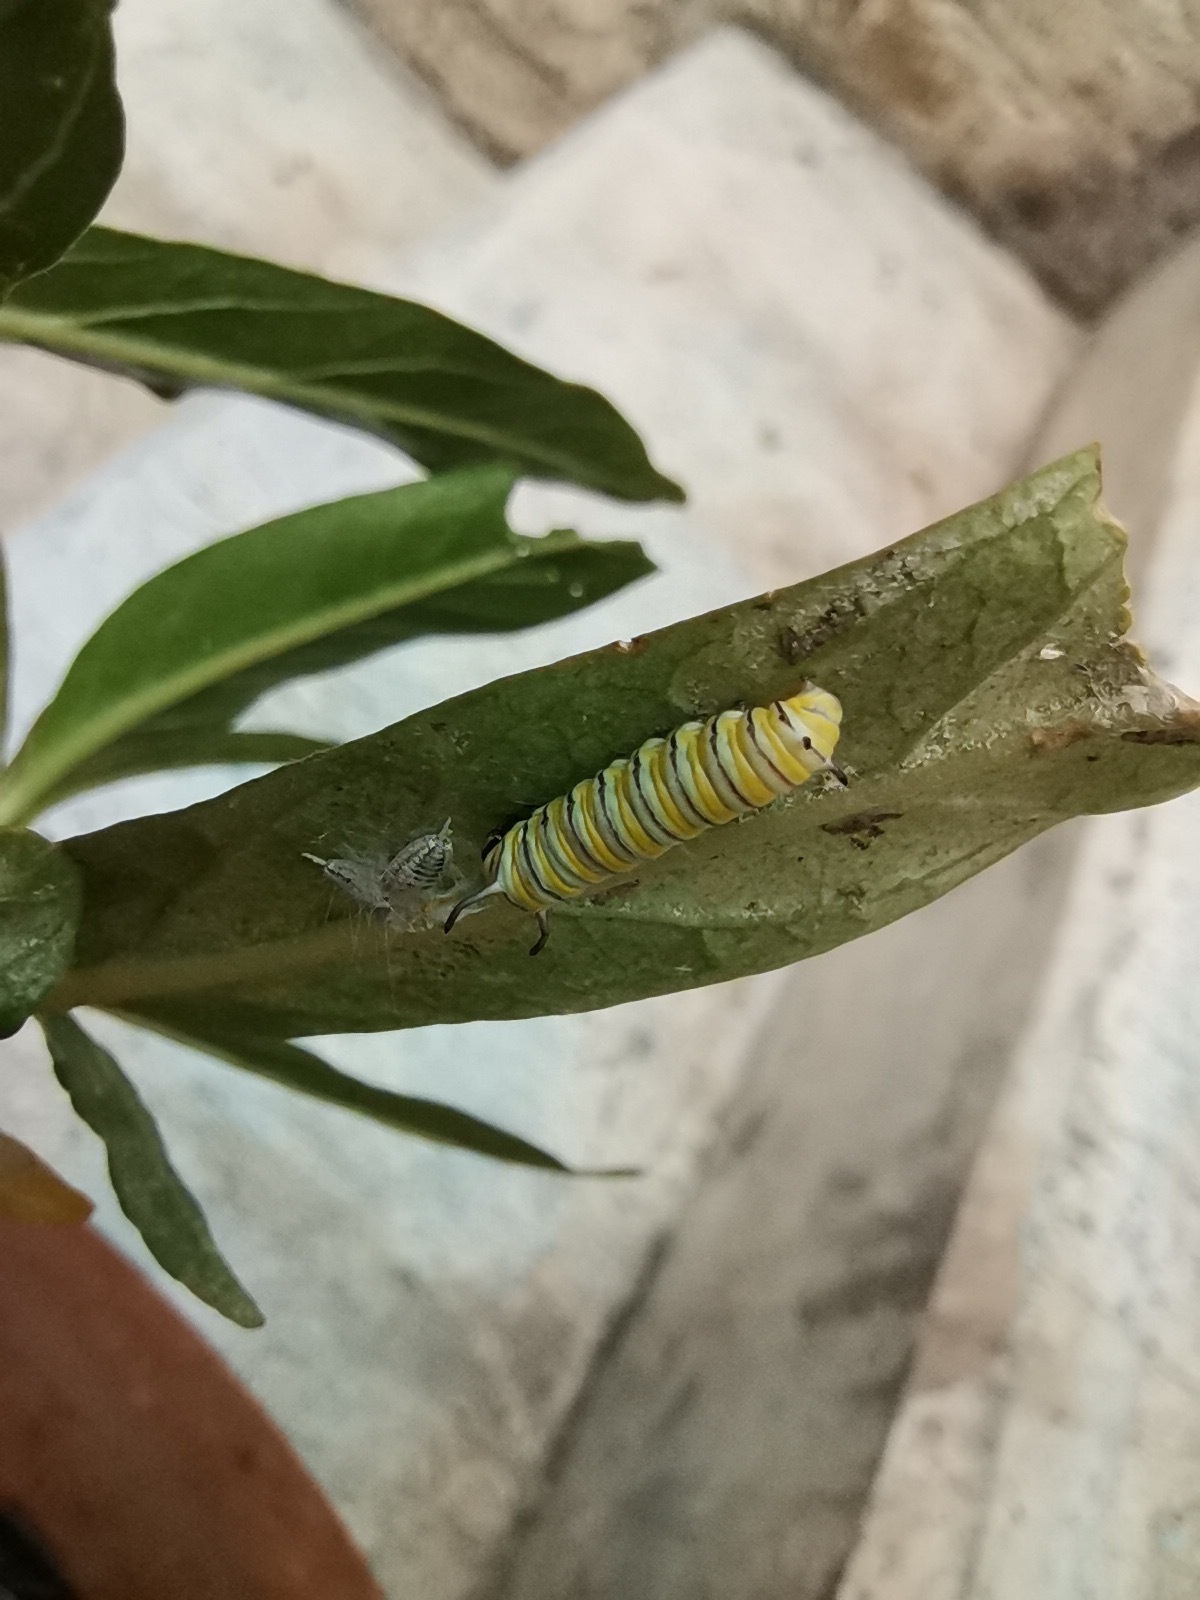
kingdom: Animalia
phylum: Arthropoda
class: Insecta
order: Lepidoptera
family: Nymphalidae
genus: Danaus
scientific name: Danaus plexippus
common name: Monarch
